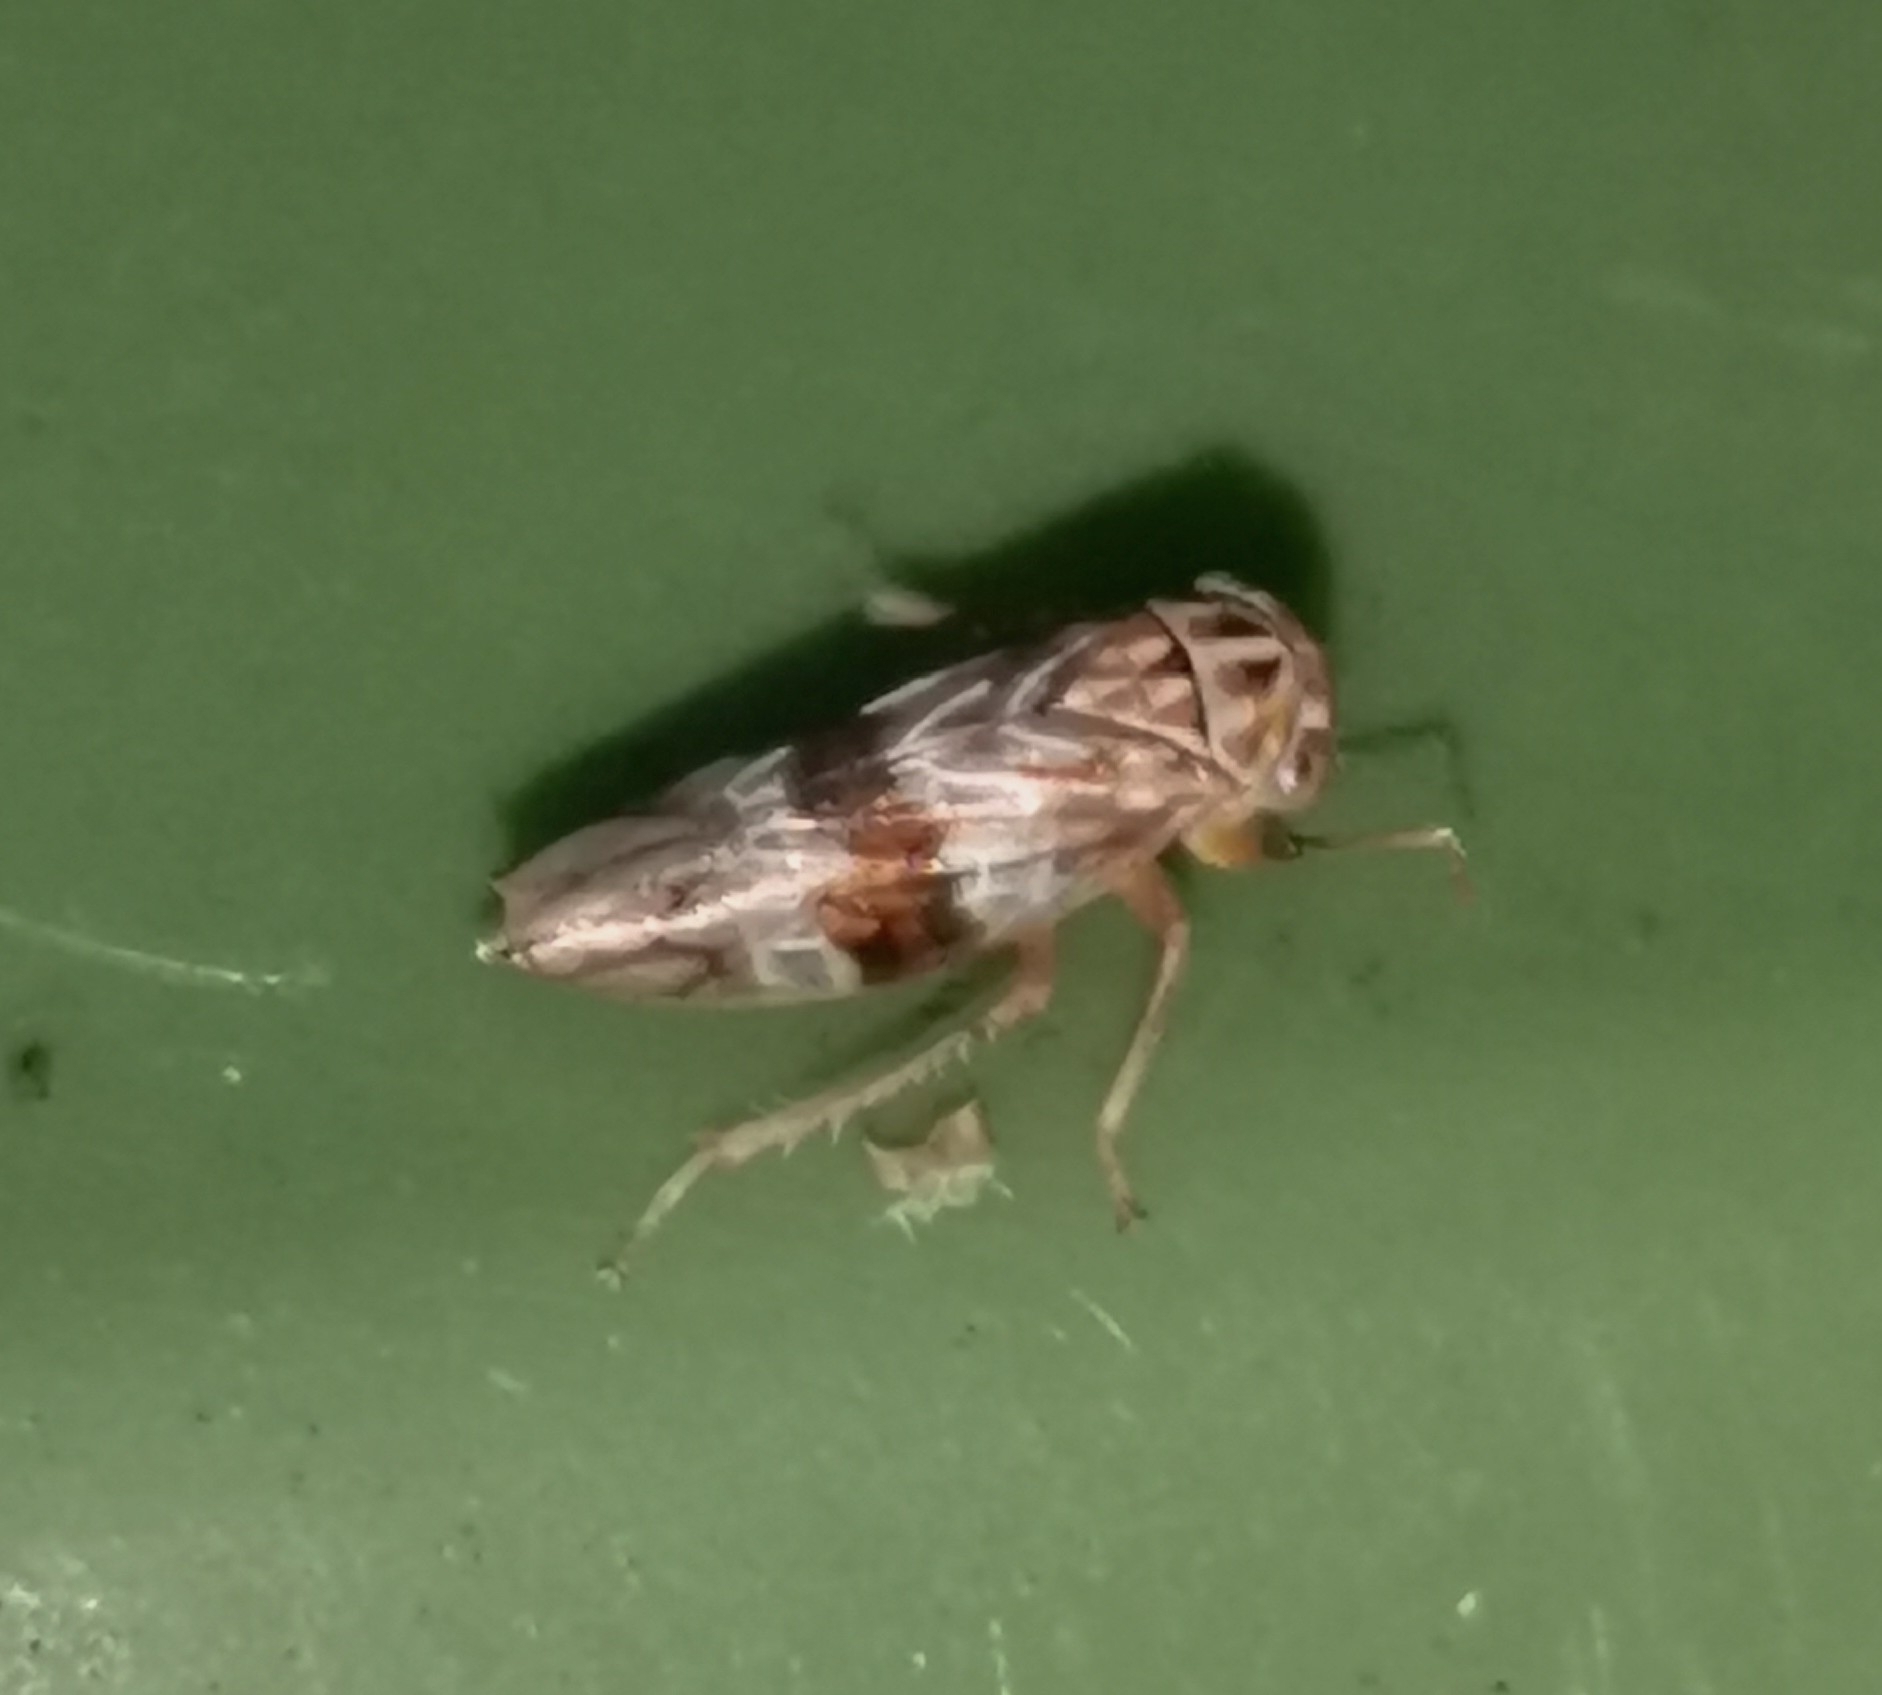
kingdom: Animalia
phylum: Arthropoda
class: Insecta
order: Hemiptera
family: Cicadellidae
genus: Tremulicerus
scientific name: Tremulicerus tremulae
